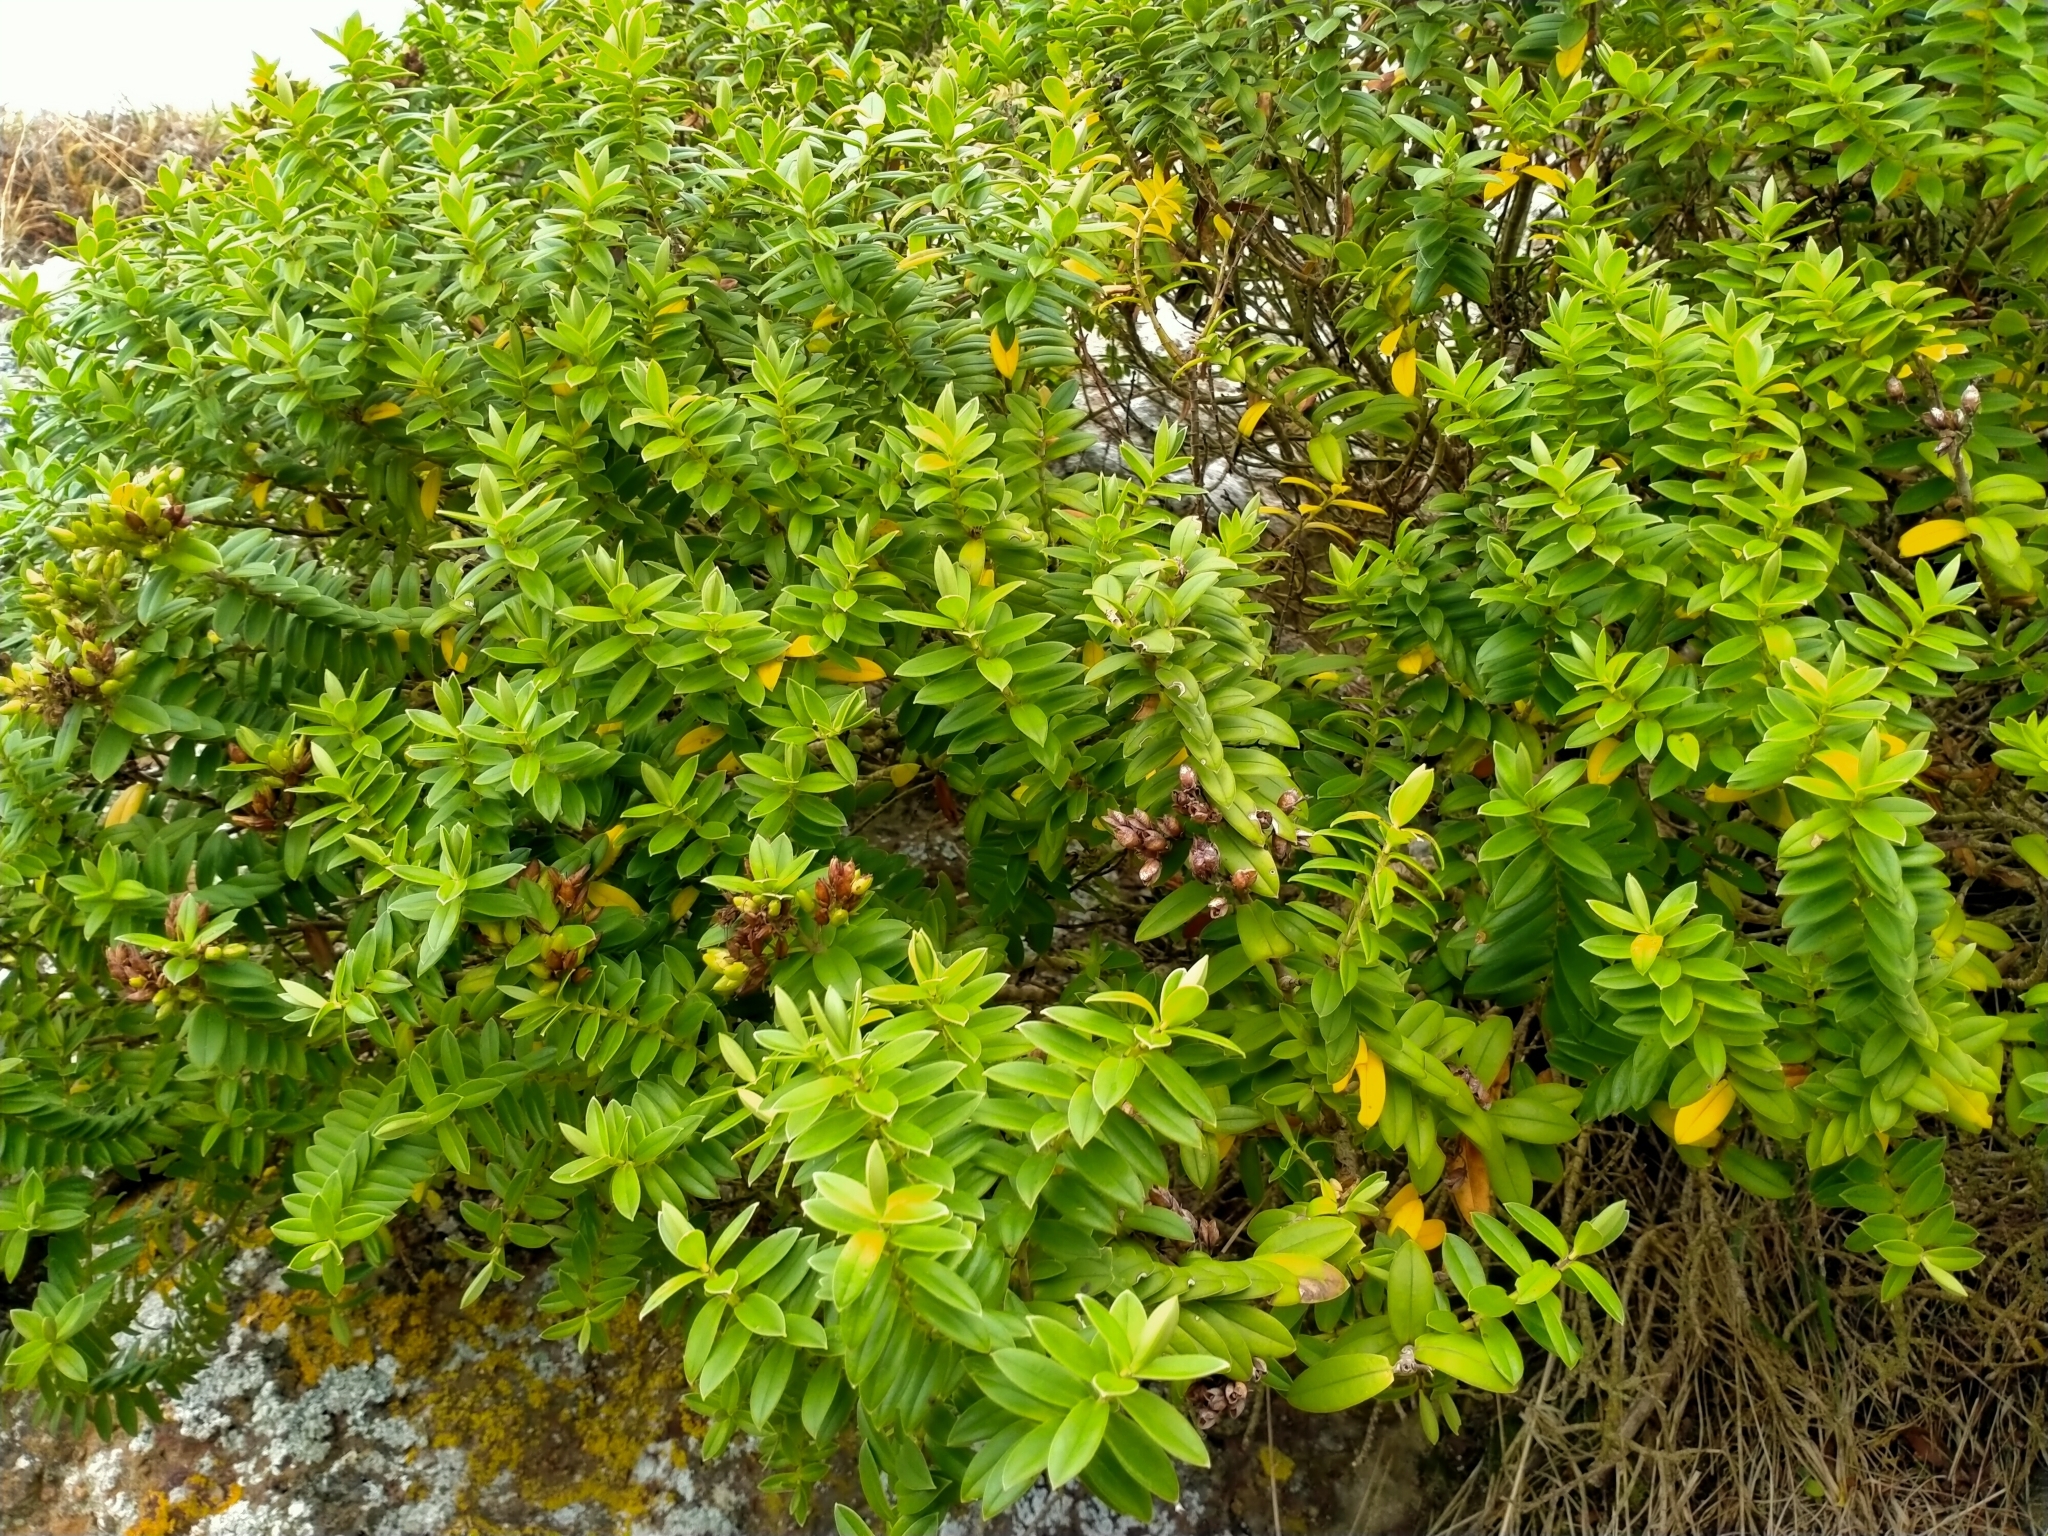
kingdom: Plantae
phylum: Tracheophyta
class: Magnoliopsida
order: Lamiales
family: Plantaginaceae
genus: Veronica
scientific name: Veronica elliptica
